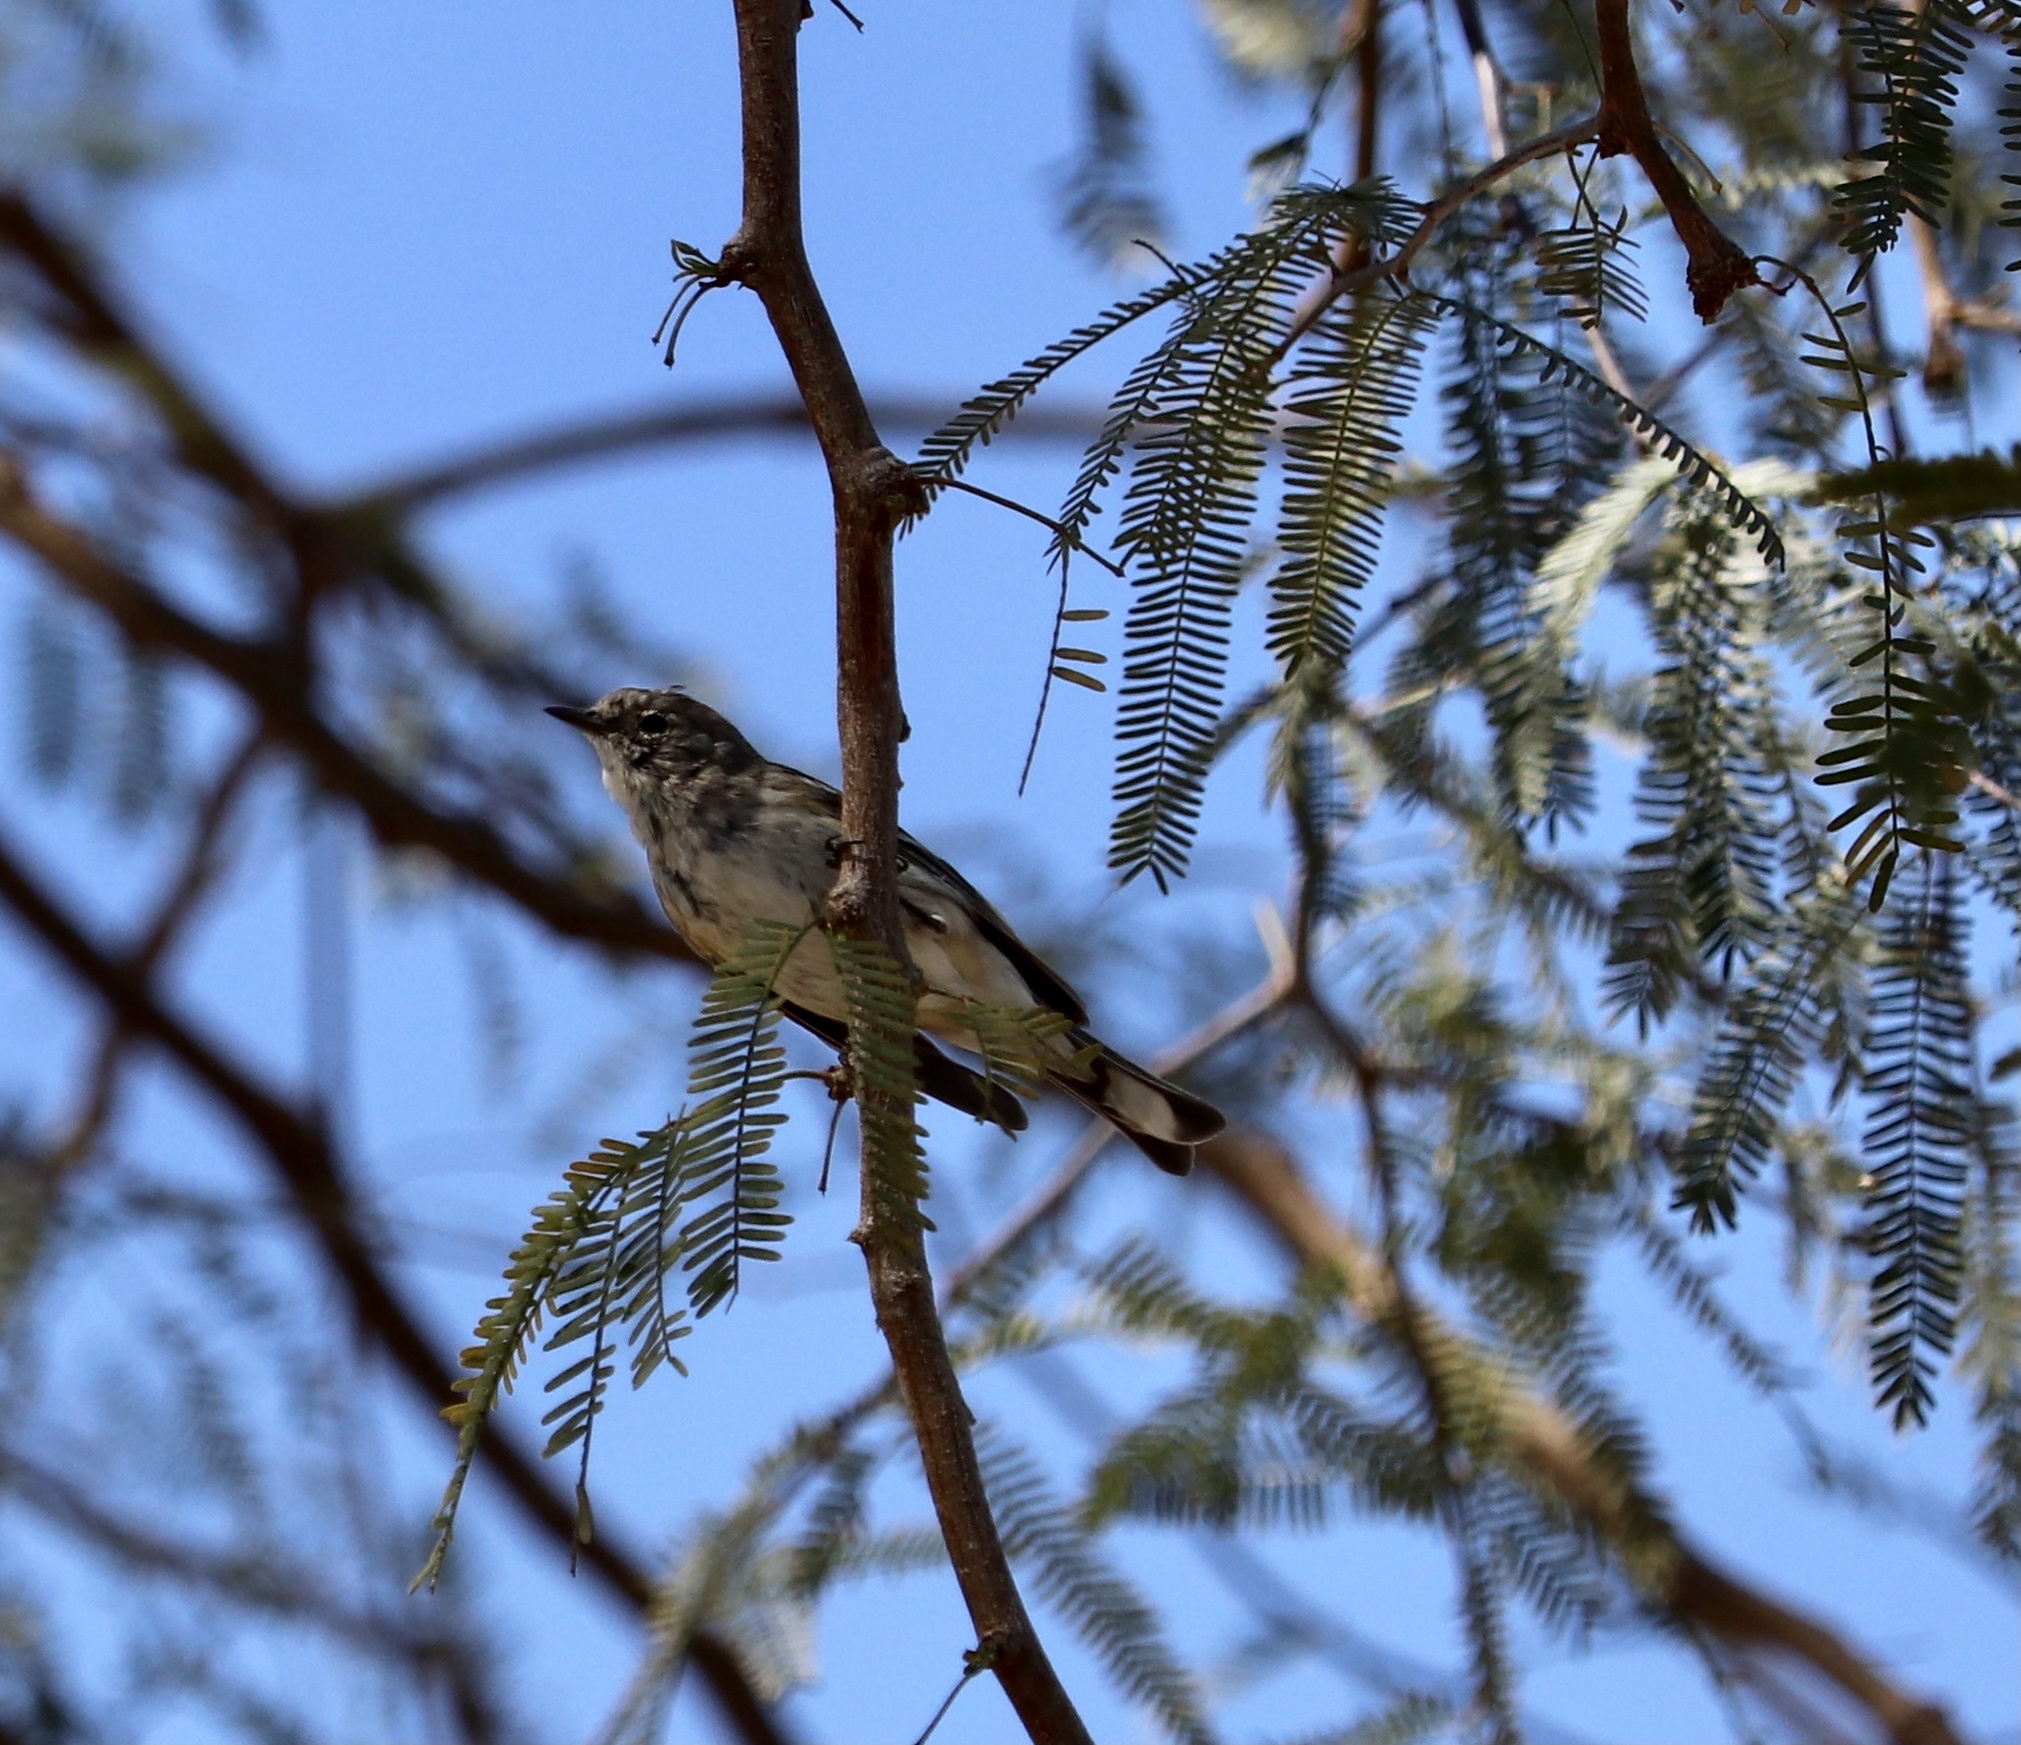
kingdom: Animalia
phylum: Chordata
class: Aves
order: Passeriformes
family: Parulidae
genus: Setophaga
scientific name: Setophaga coronata
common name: Myrtle warbler
